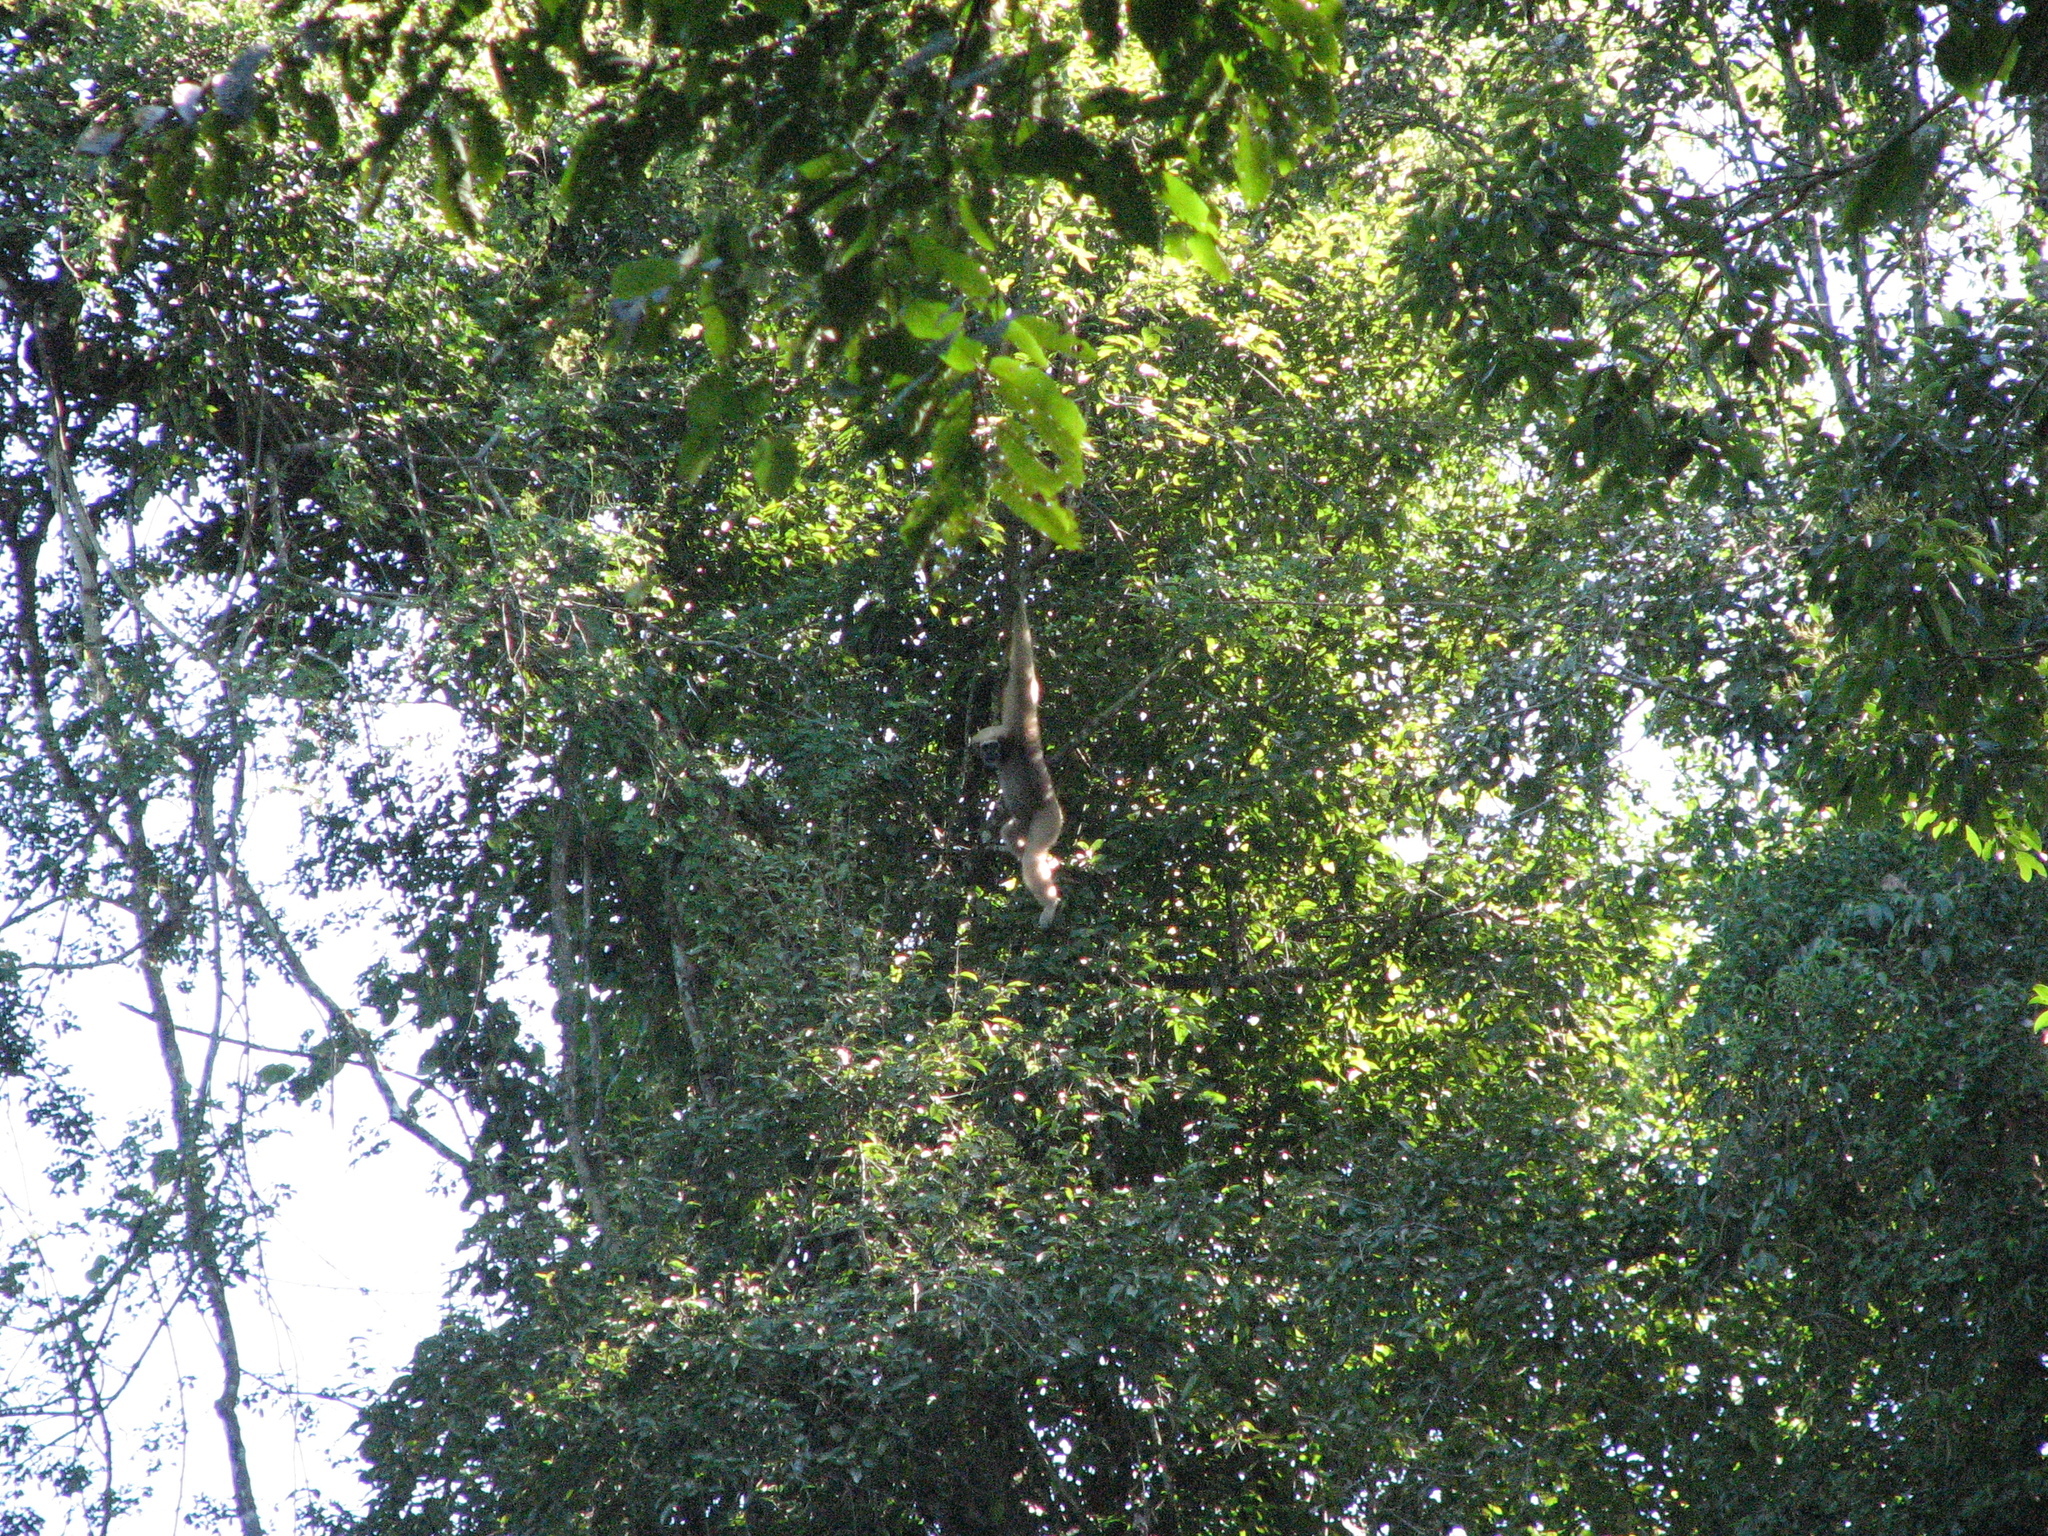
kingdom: Animalia
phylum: Chordata
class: Mammalia
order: Primates
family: Hylobatidae
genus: Hoolock
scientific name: Hoolock hoolock
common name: Western hoolock gibbon
